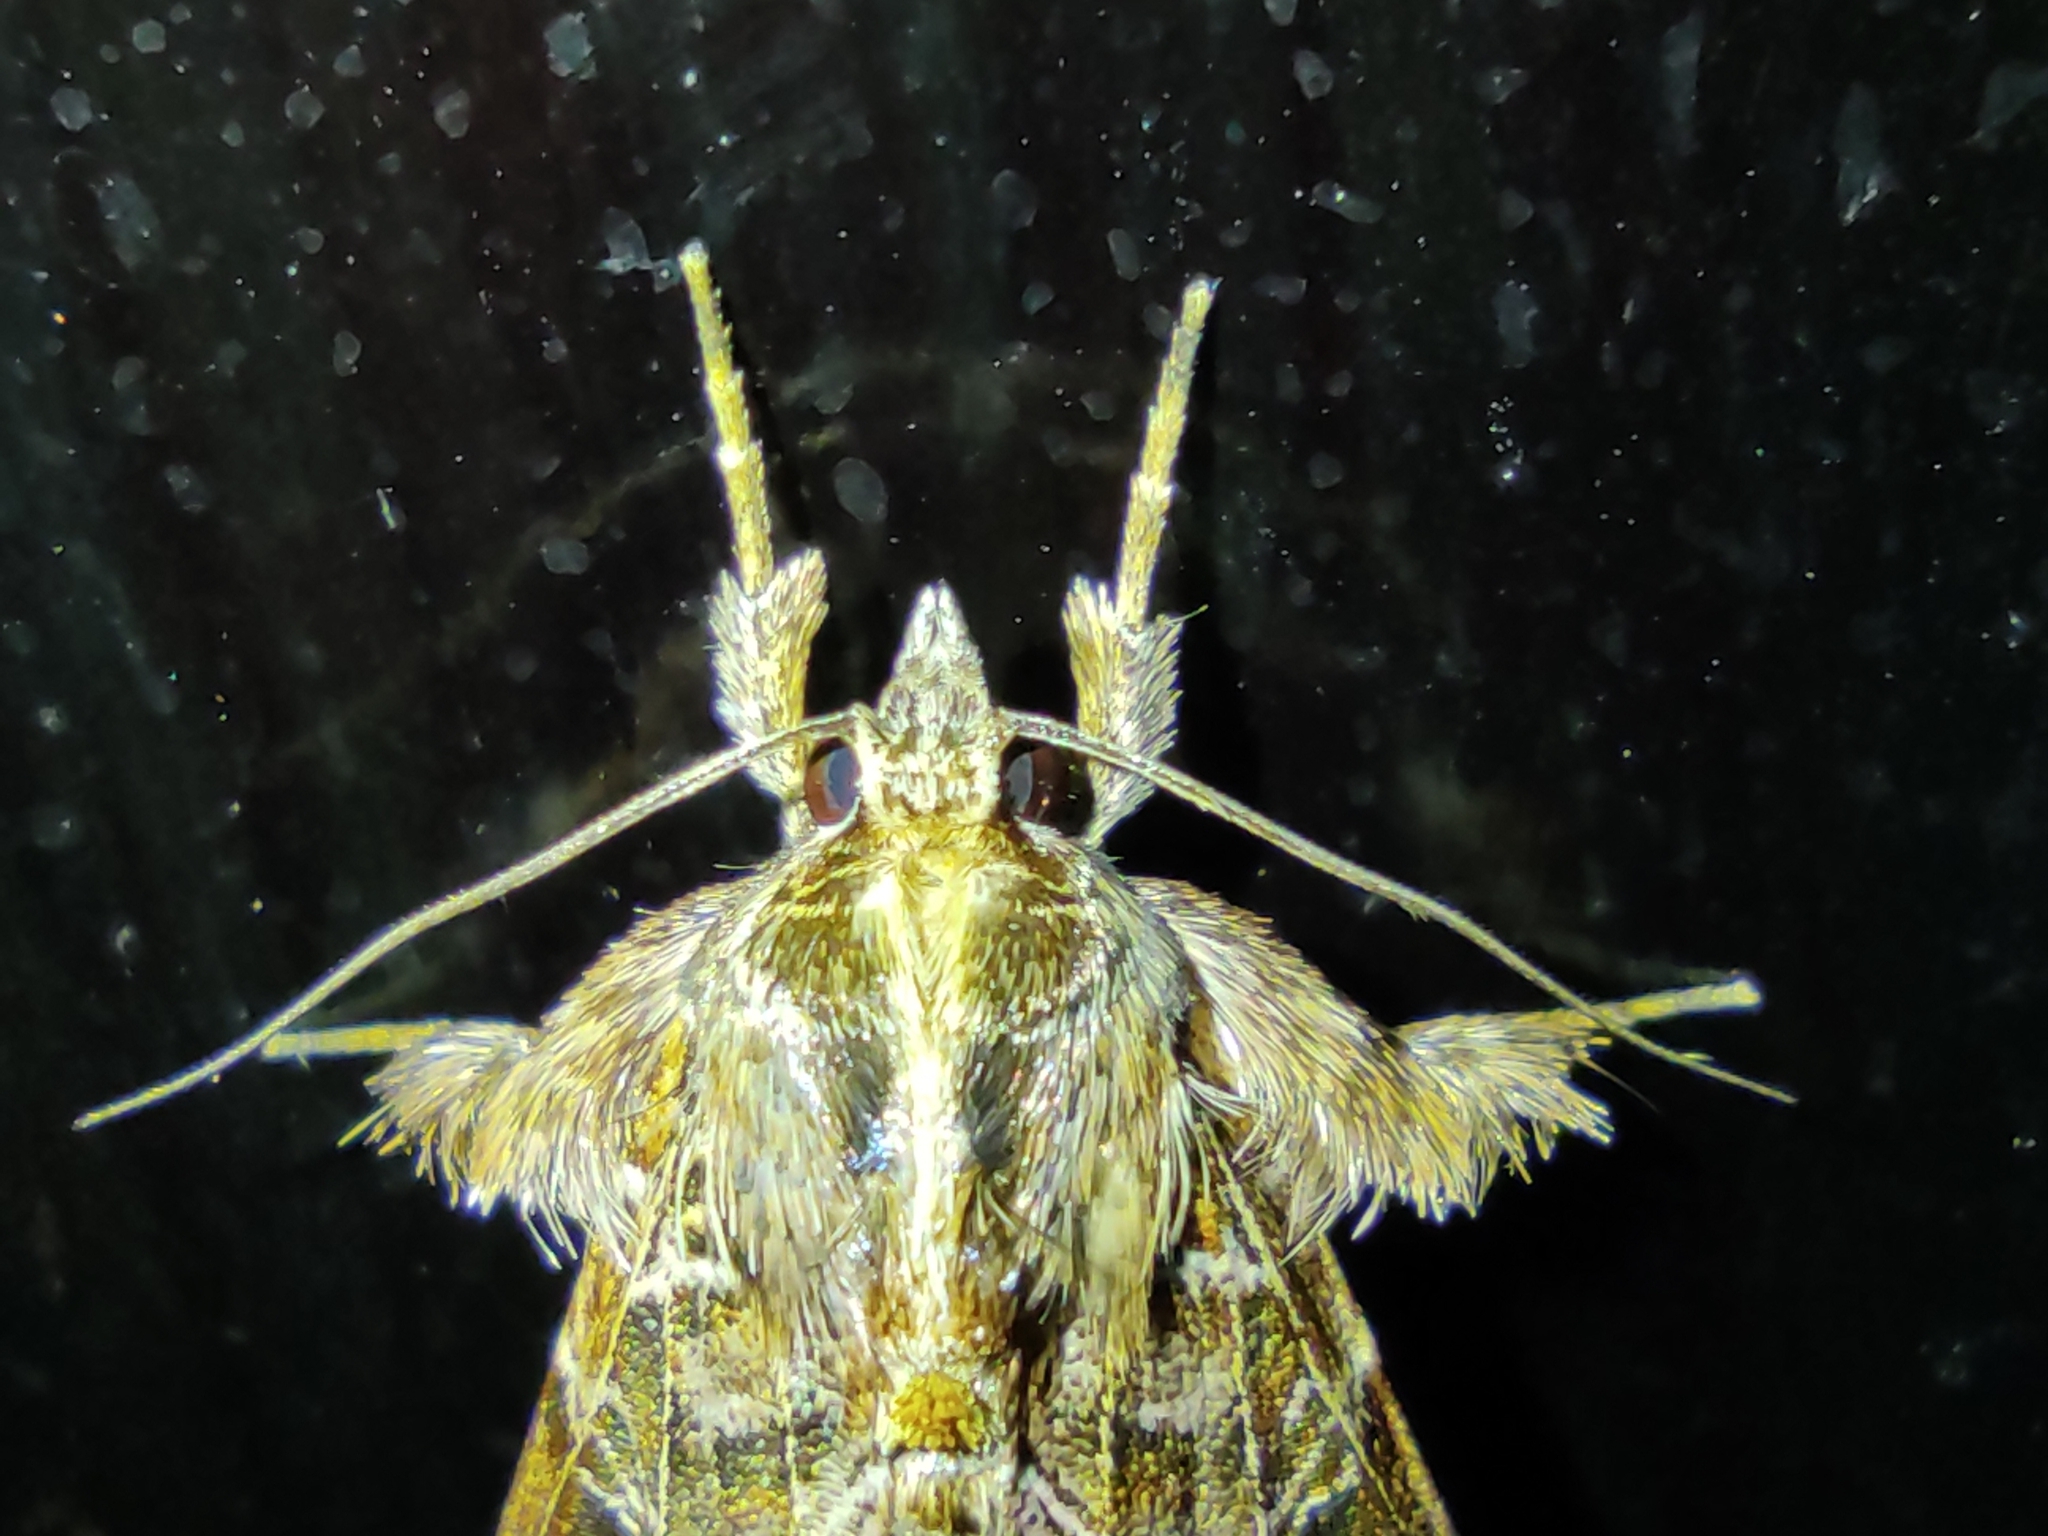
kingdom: Animalia
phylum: Arthropoda
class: Insecta
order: Lepidoptera
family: Noctuidae
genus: Callopistria
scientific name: Callopistria floridensis
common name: Florida fern moth
